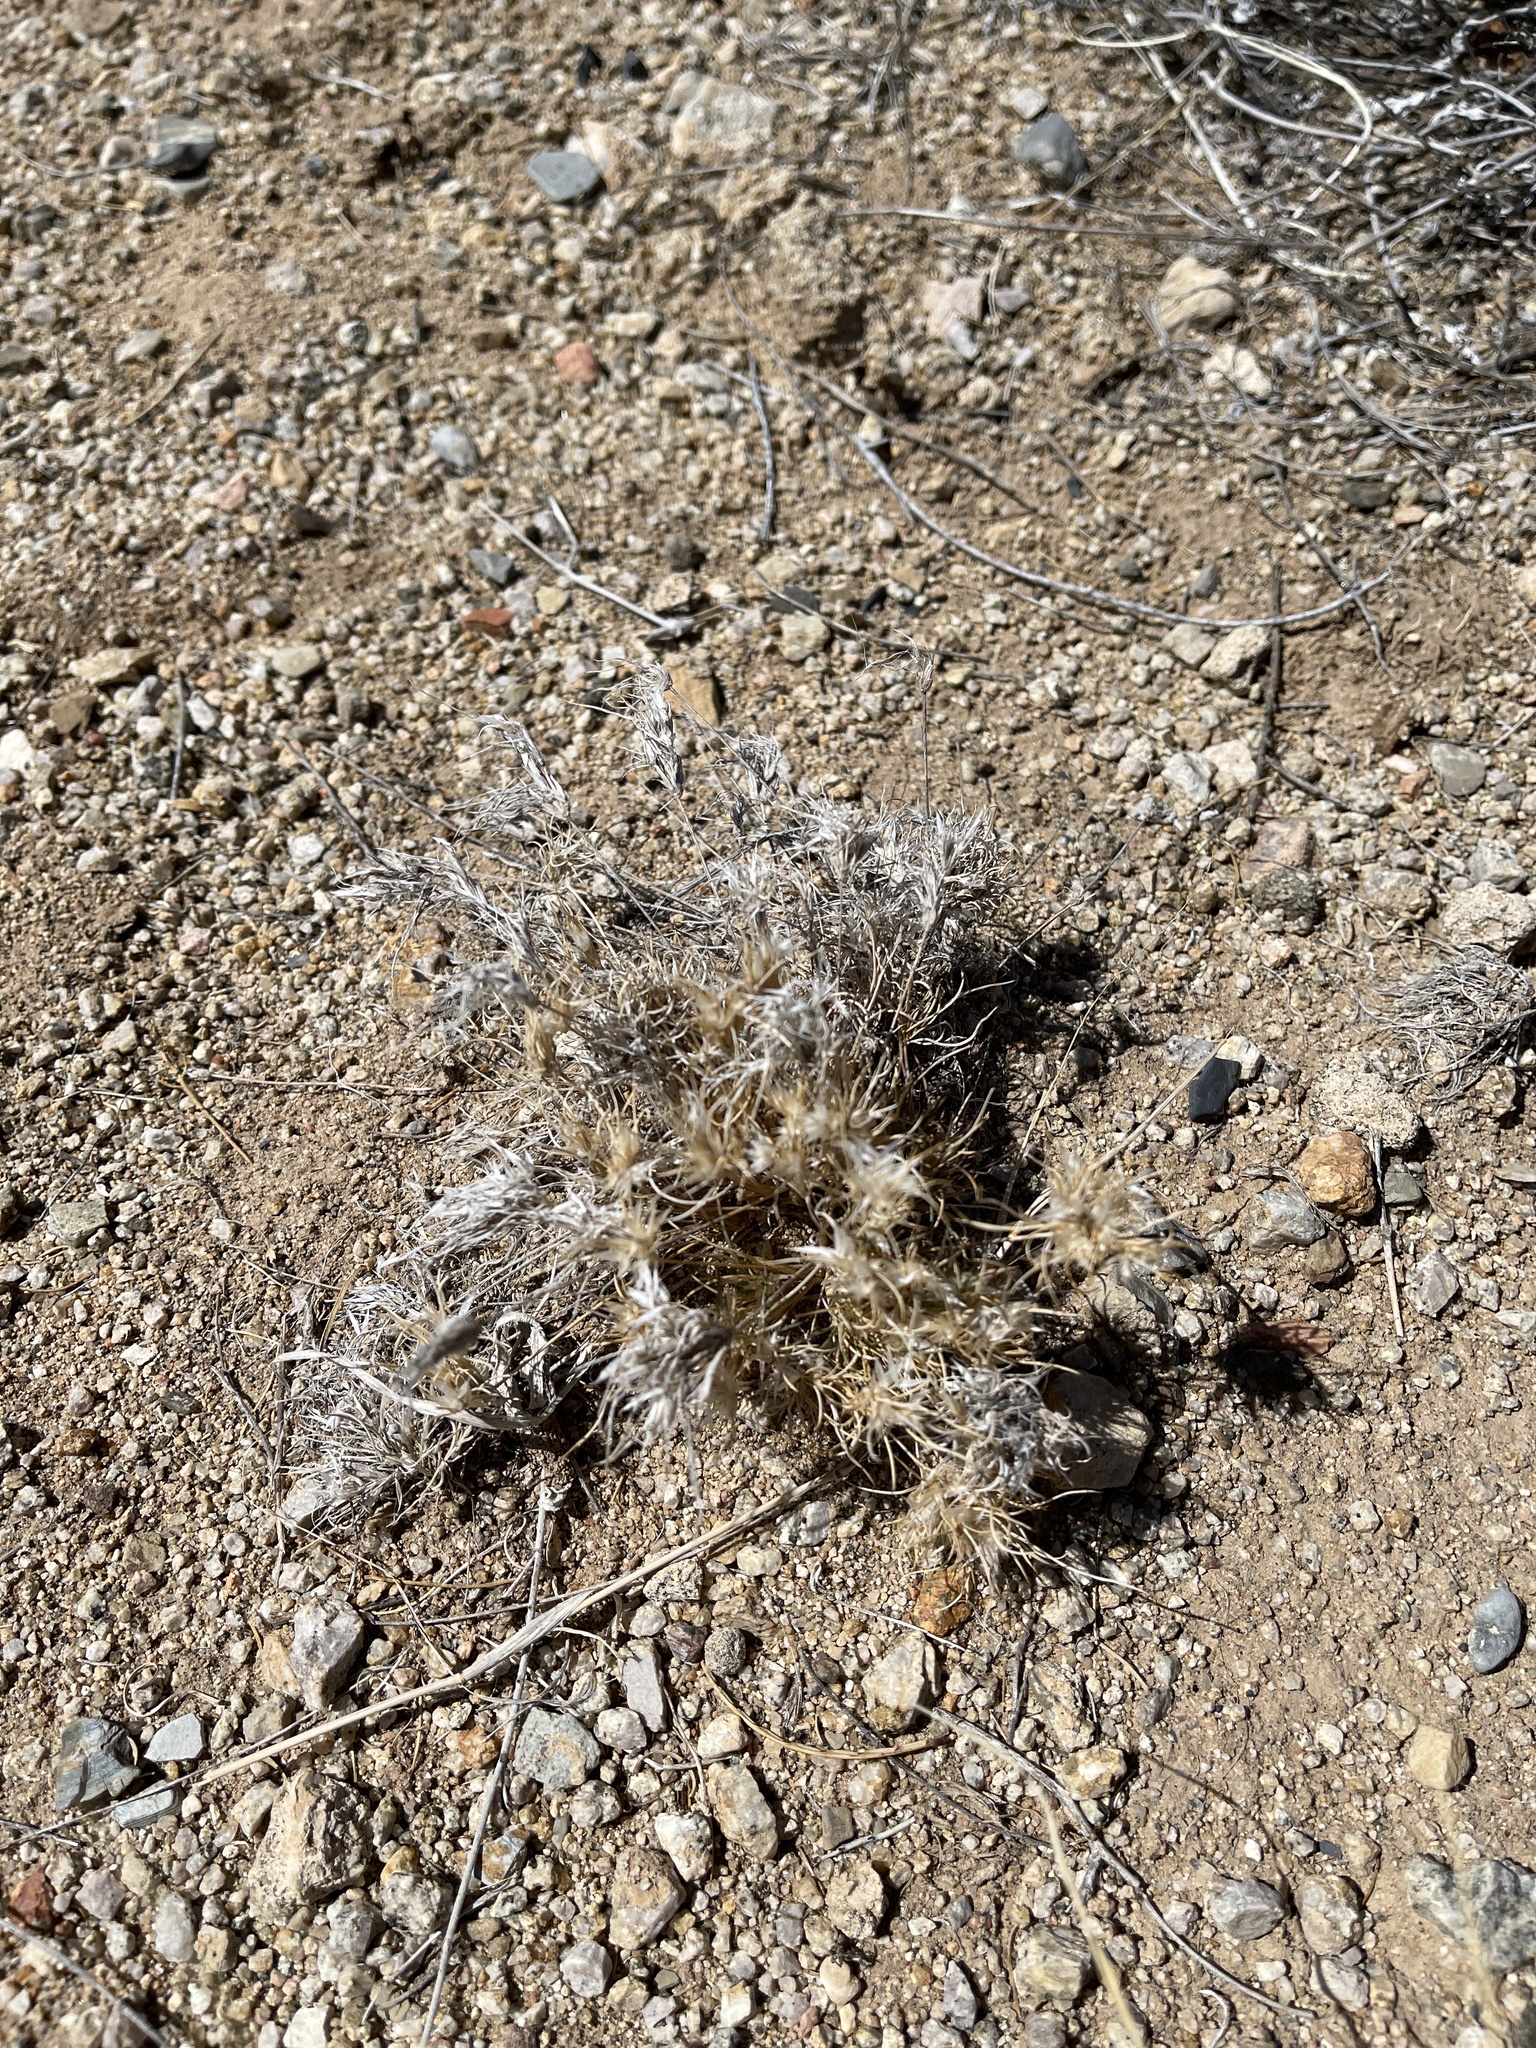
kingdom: Plantae
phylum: Tracheophyta
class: Liliopsida
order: Poales
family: Poaceae
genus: Dasyochloa
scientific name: Dasyochloa pulchella
